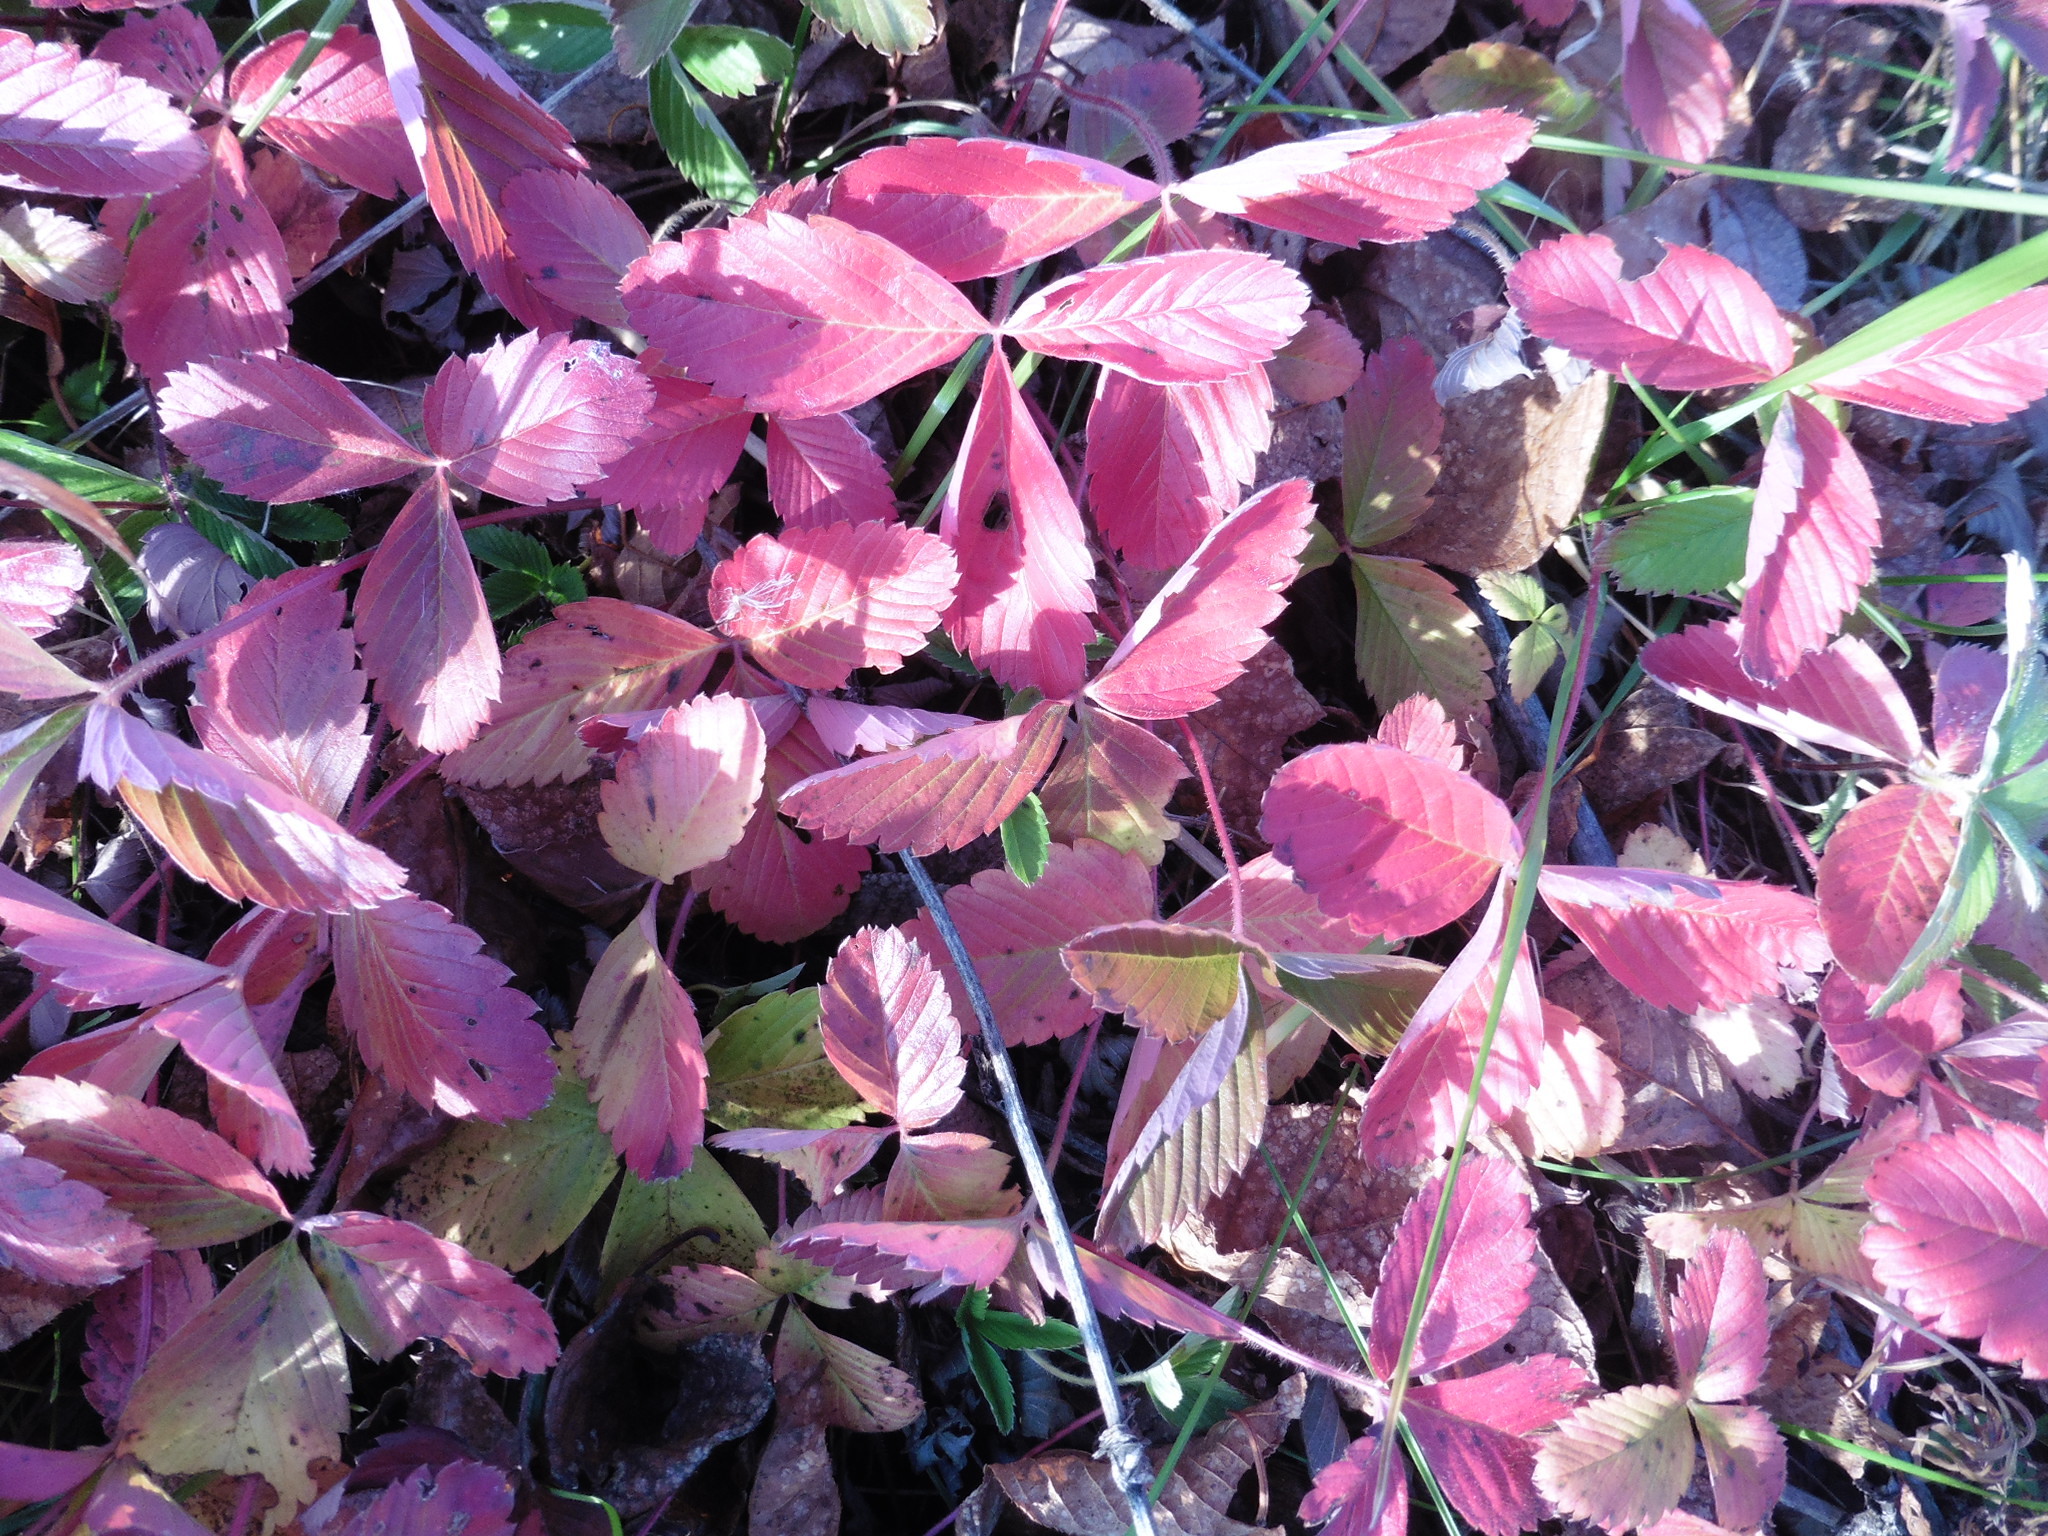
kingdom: Plantae
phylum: Tracheophyta
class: Magnoliopsida
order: Rosales
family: Rosaceae
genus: Fragaria
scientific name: Fragaria viridis
